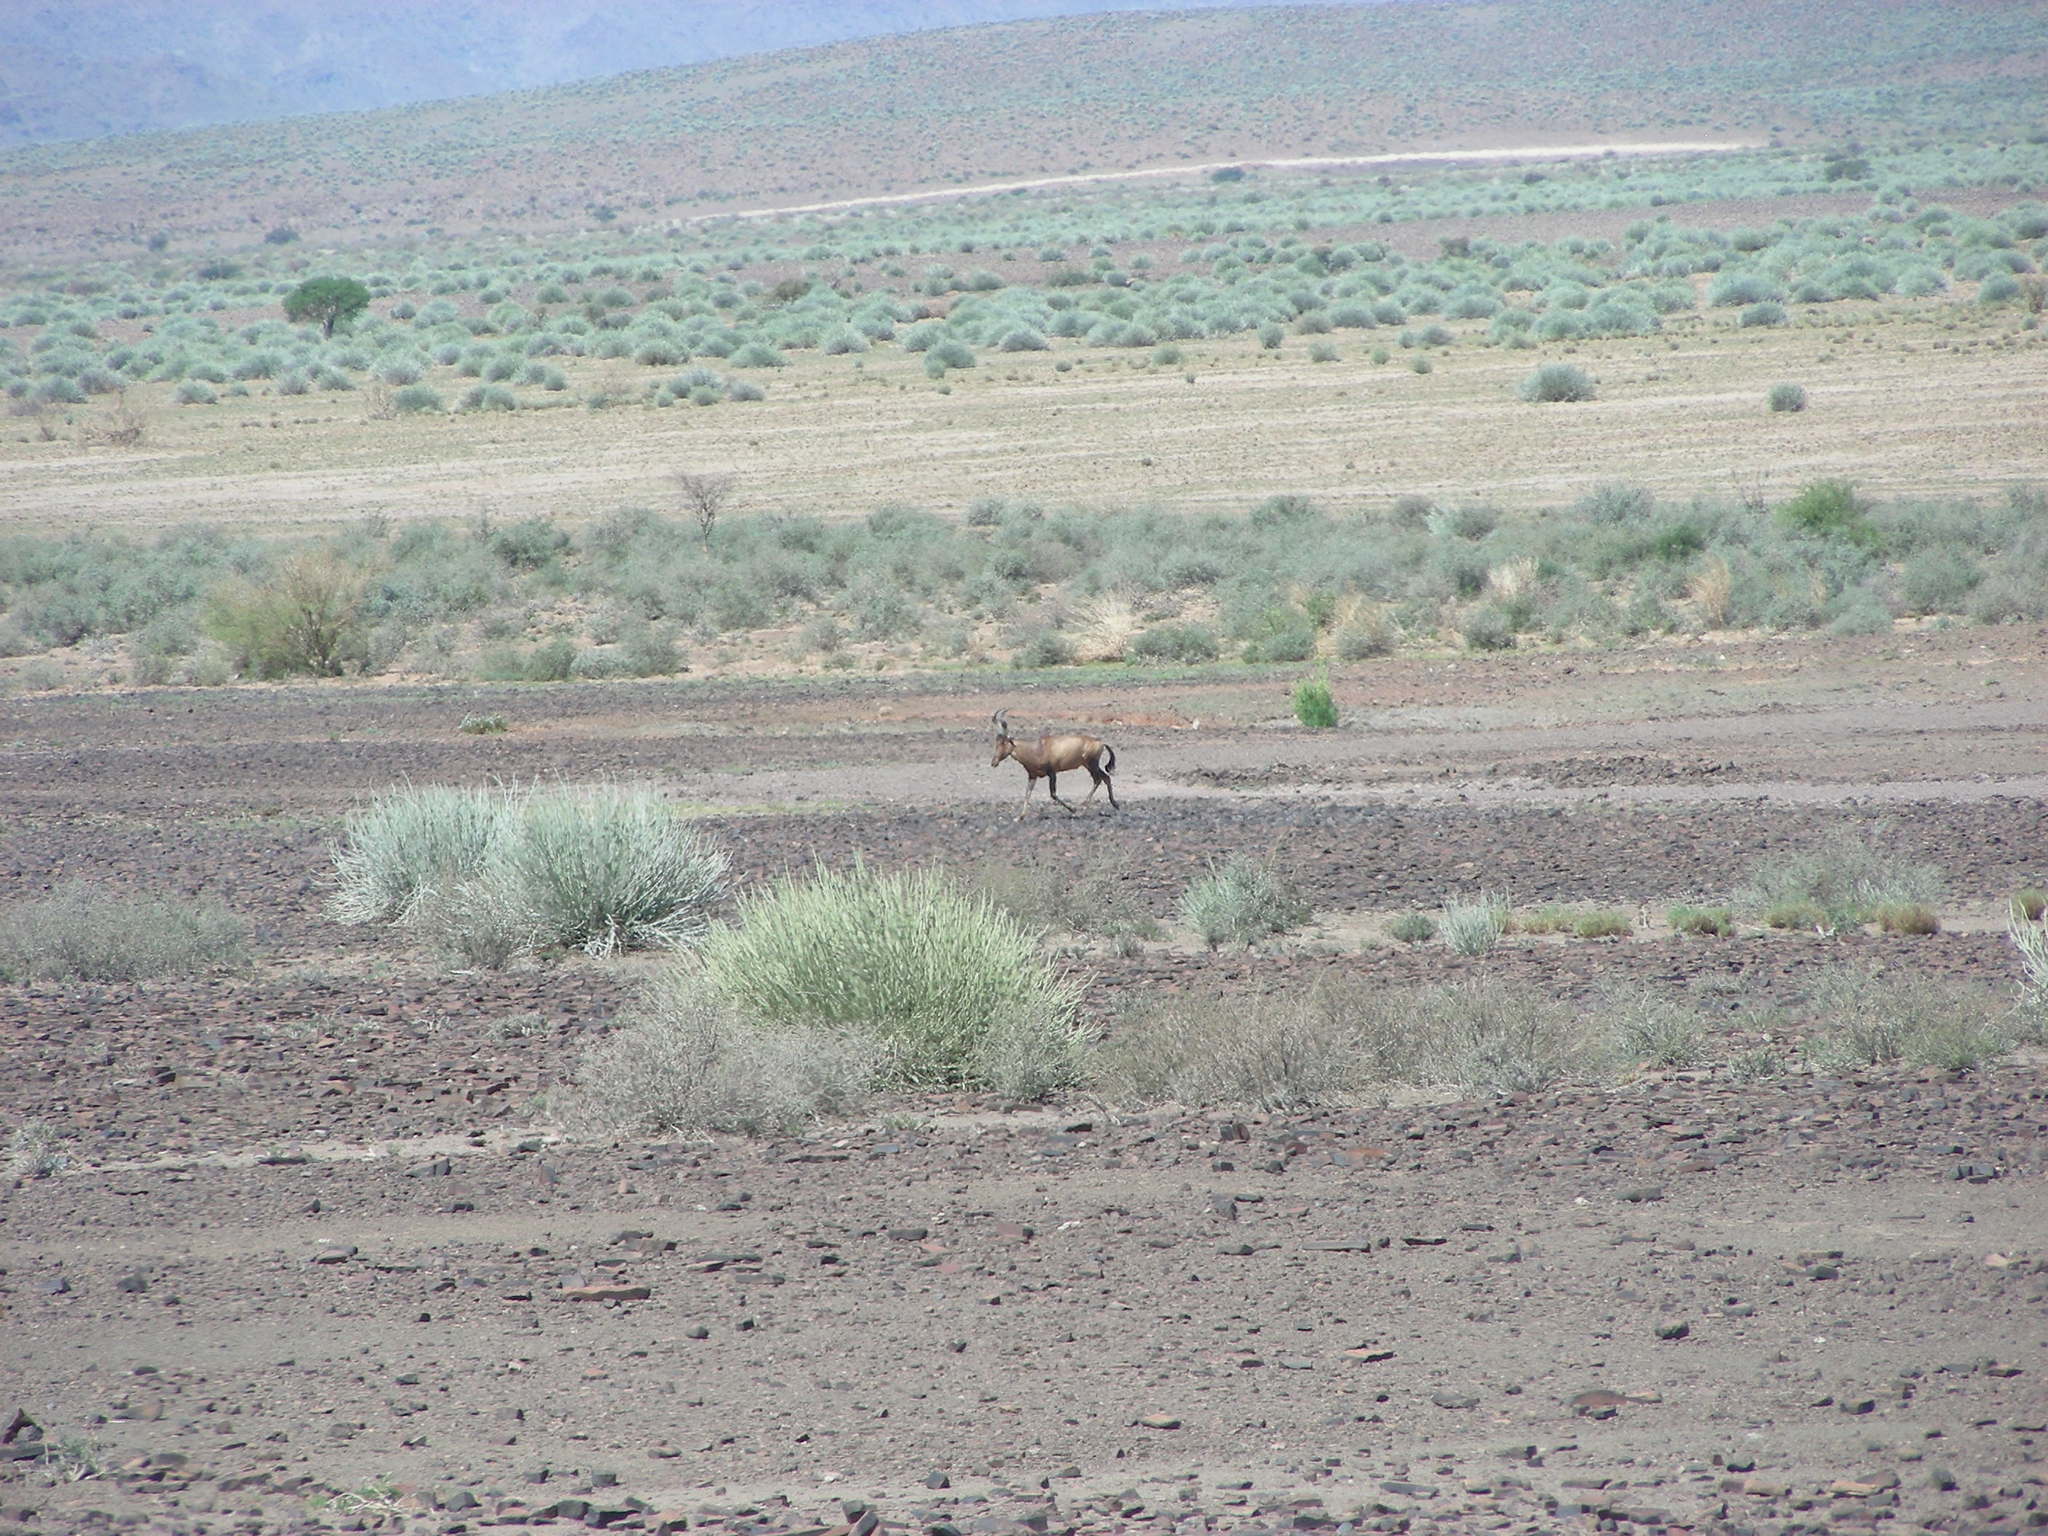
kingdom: Animalia
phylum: Chordata
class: Mammalia
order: Artiodactyla
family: Bovidae
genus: Alcelaphus
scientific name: Alcelaphus caama
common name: Red hartebeest
